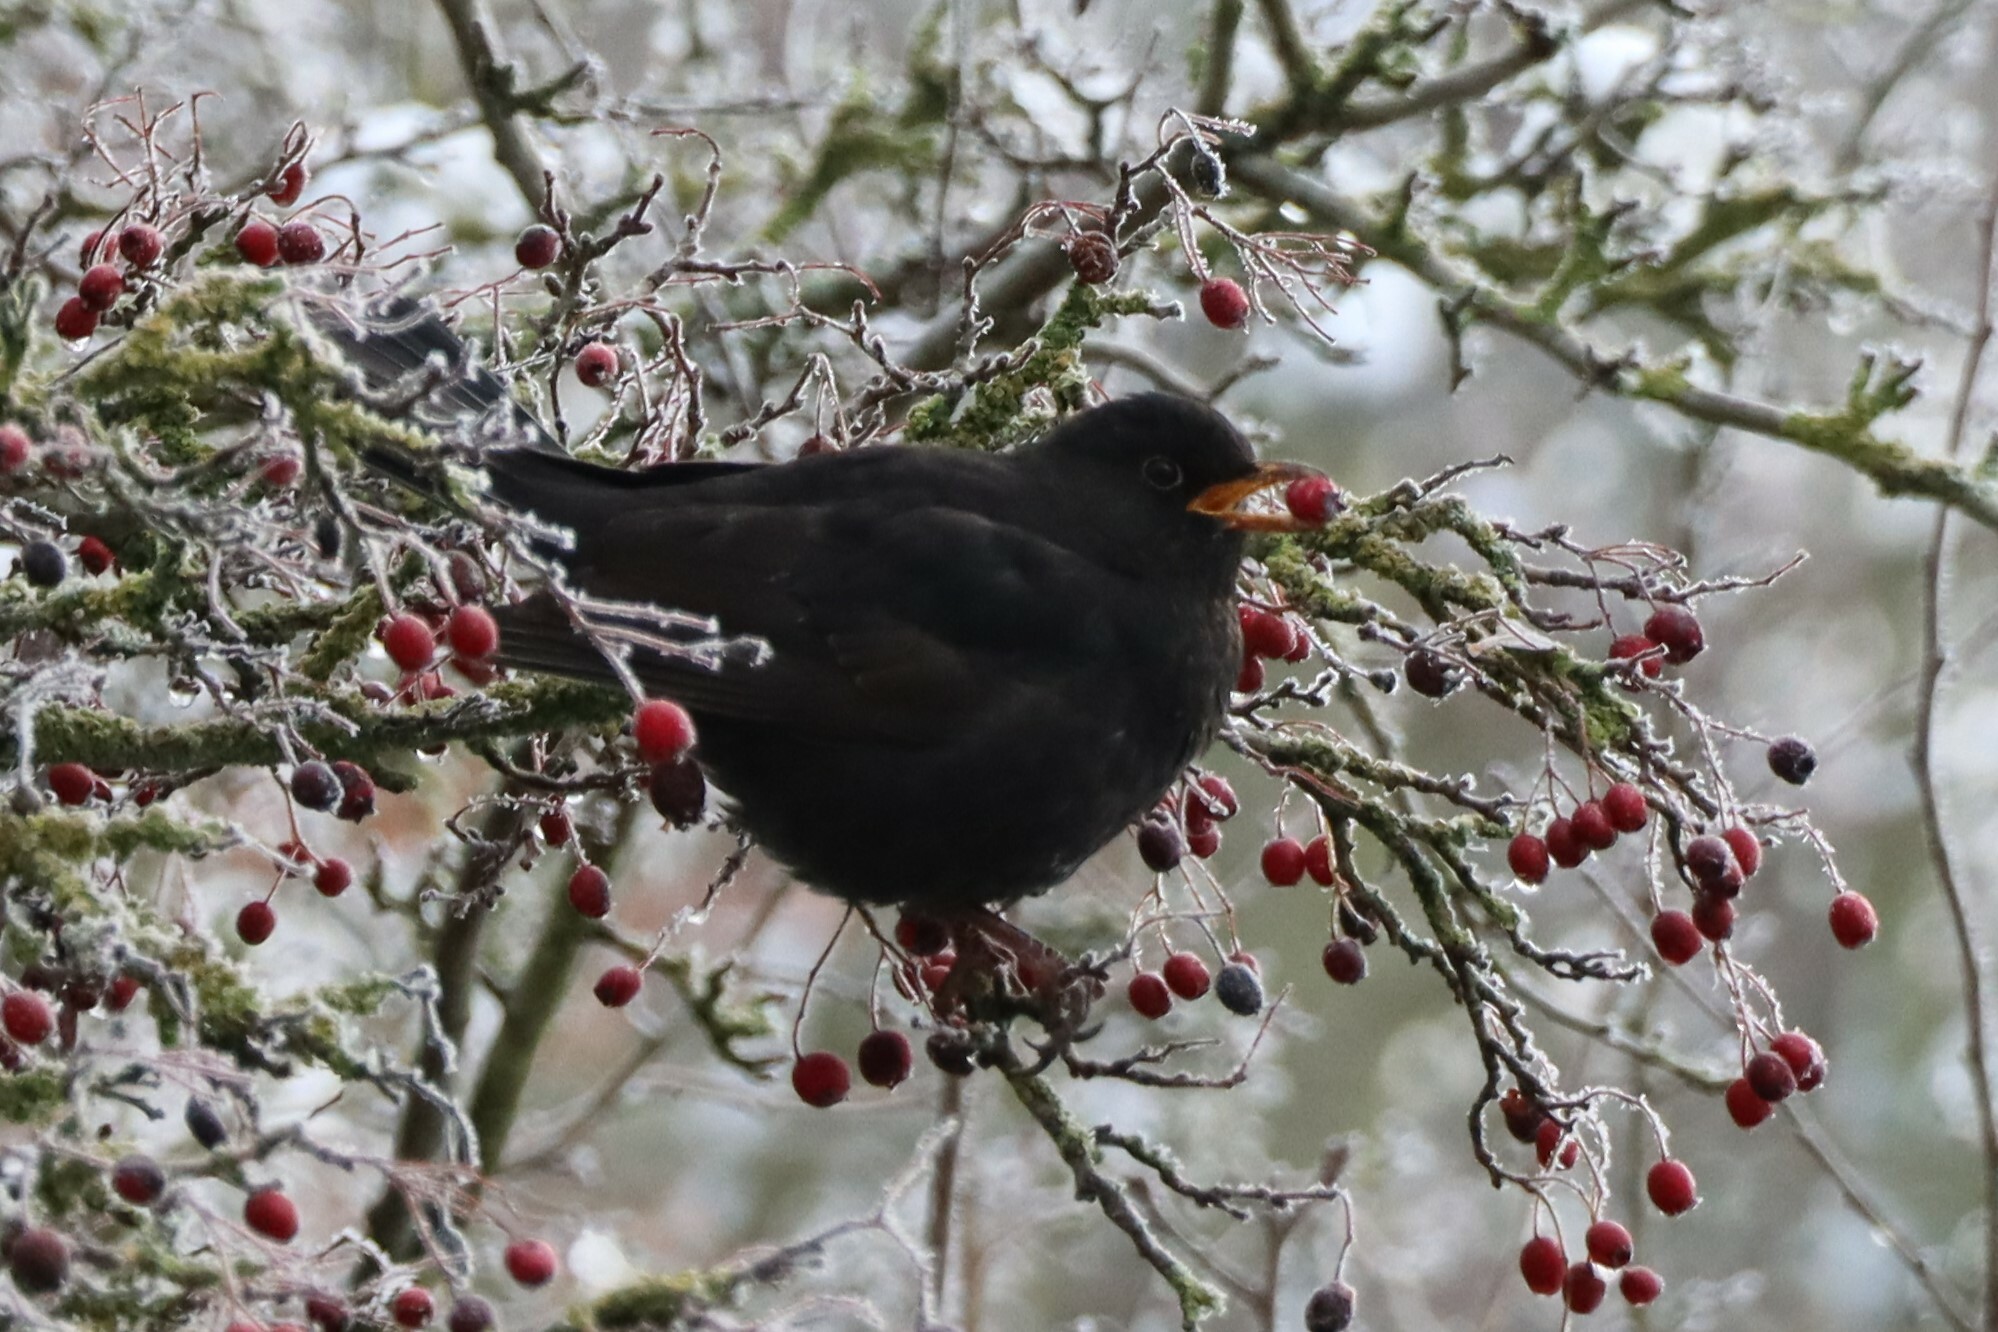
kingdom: Animalia
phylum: Chordata
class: Aves
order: Passeriformes
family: Turdidae
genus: Turdus
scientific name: Turdus merula
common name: Common blackbird
